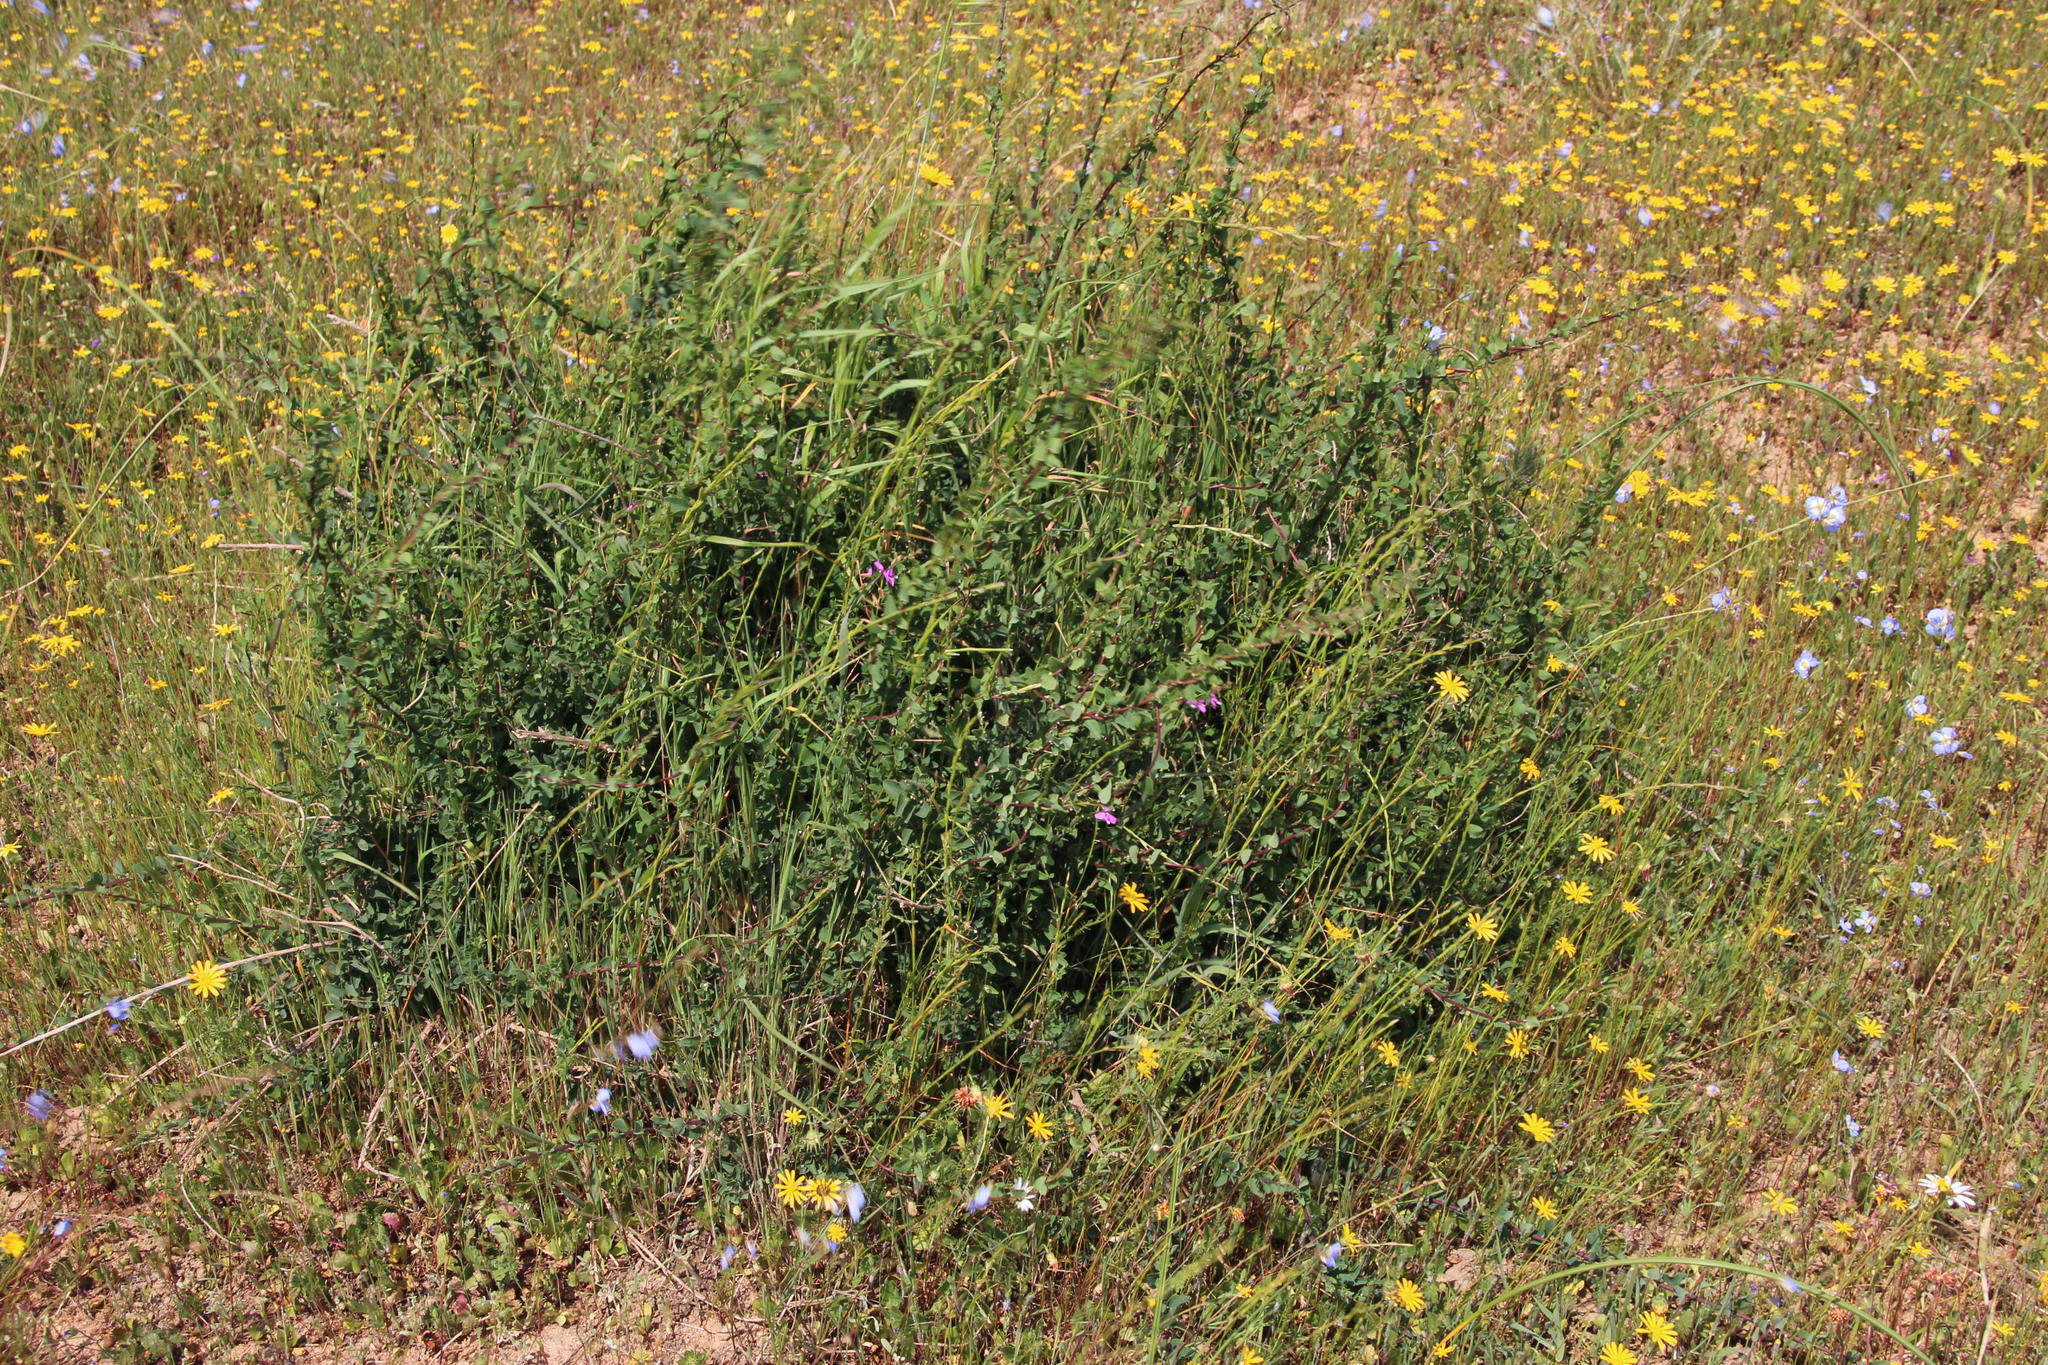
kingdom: Plantae
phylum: Tracheophyta
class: Magnoliopsida
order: Fabales
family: Polygalaceae
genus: Polygala
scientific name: Polygala garcini
